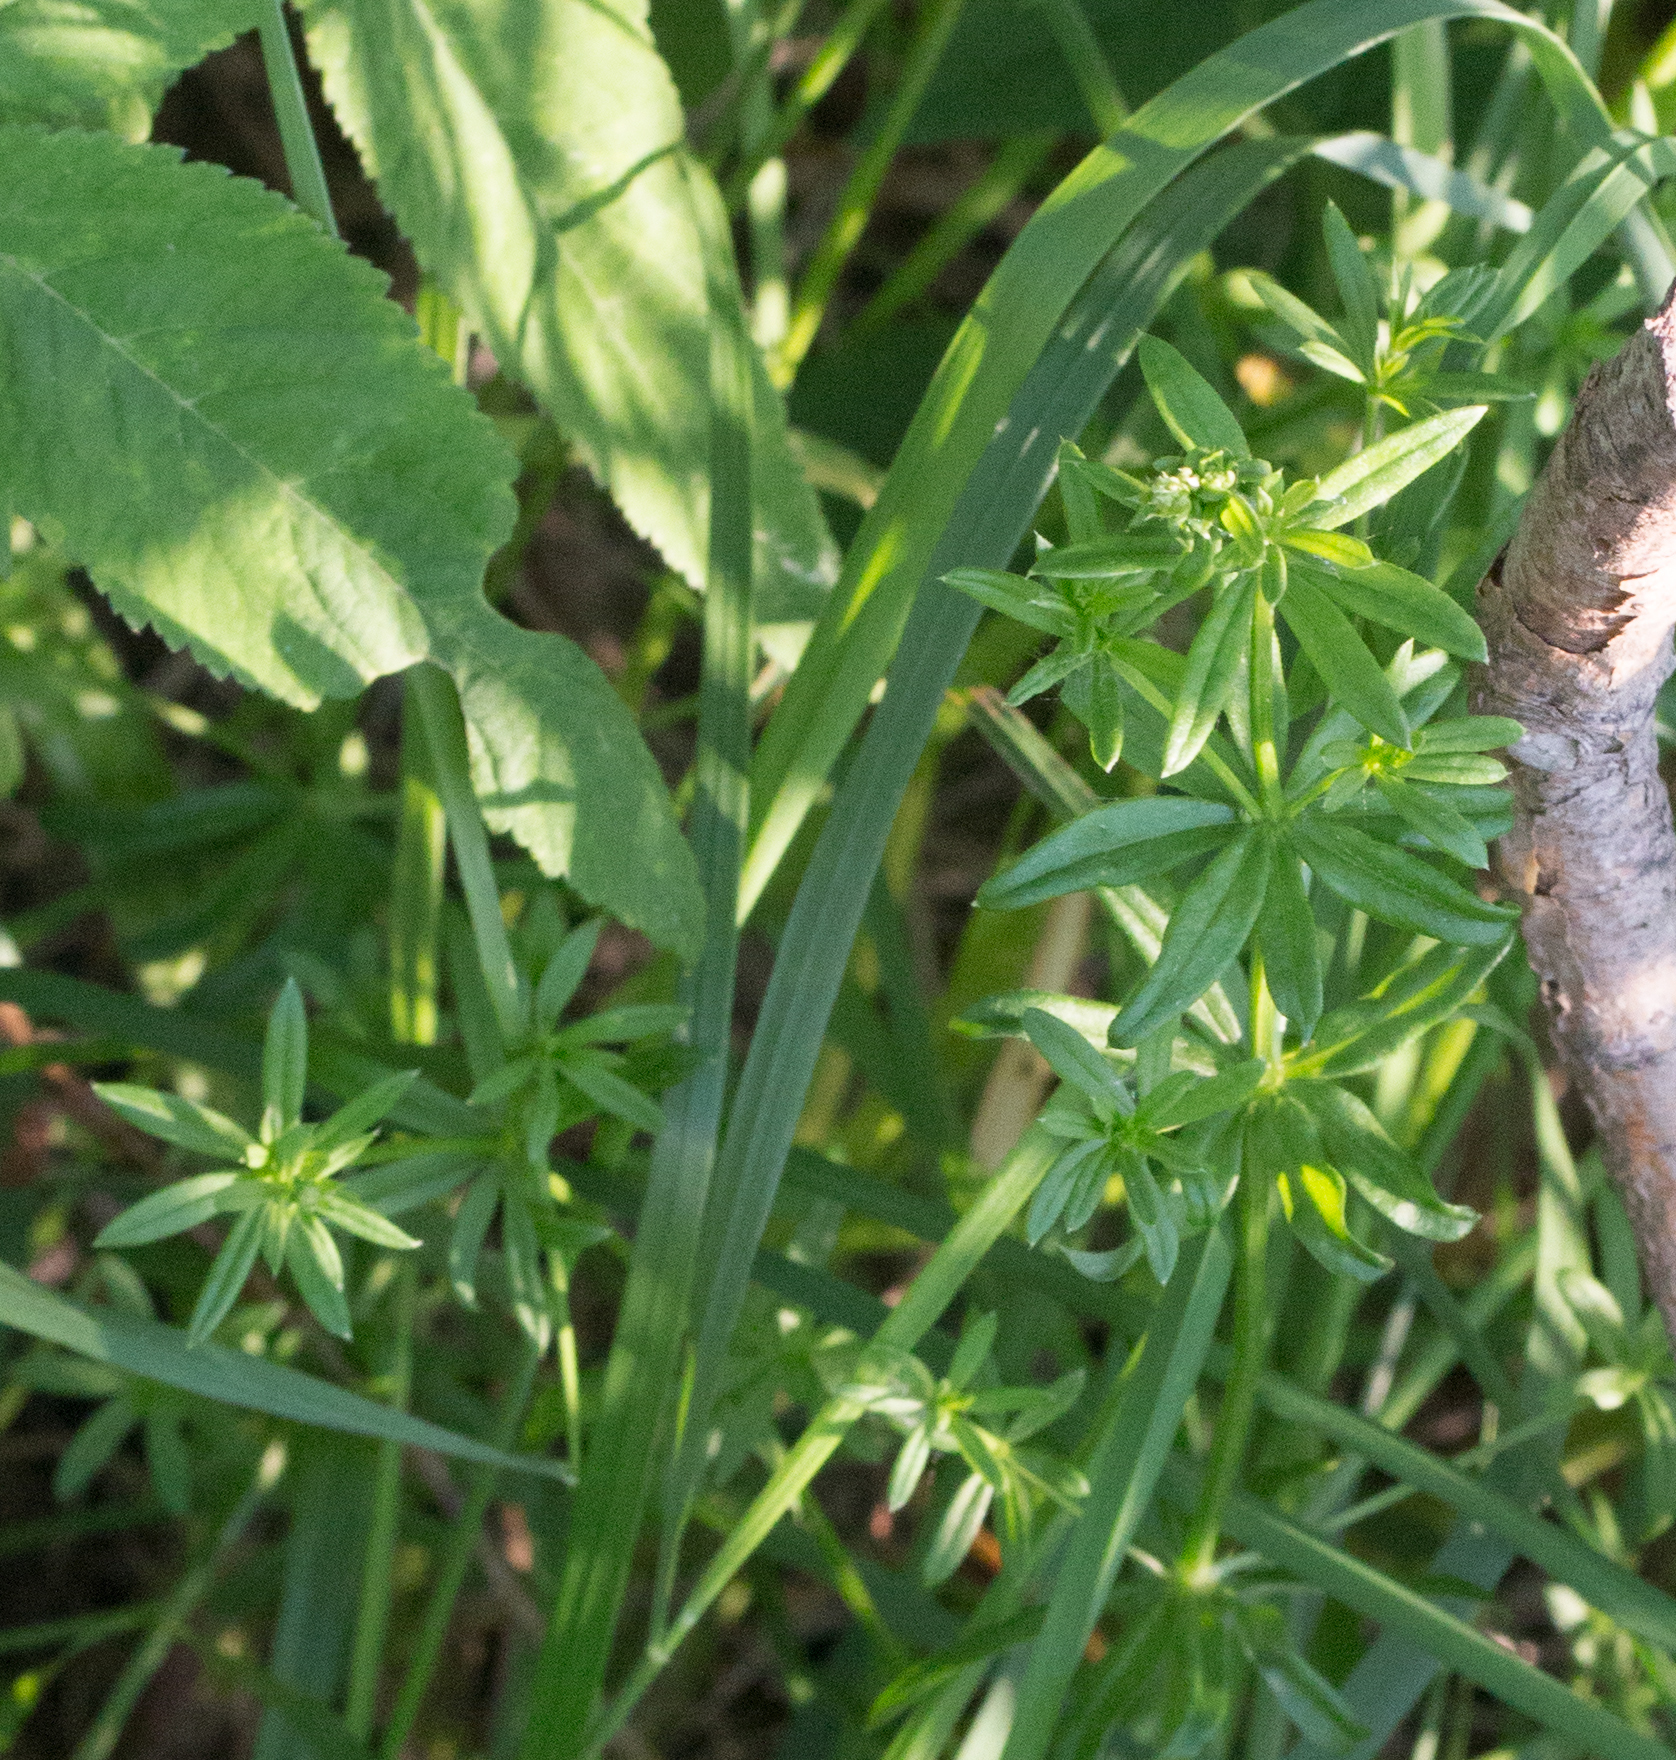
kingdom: Plantae
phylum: Tracheophyta
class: Magnoliopsida
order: Gentianales
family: Rubiaceae
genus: Galium
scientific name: Galium mollugo
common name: Hedge bedstraw
